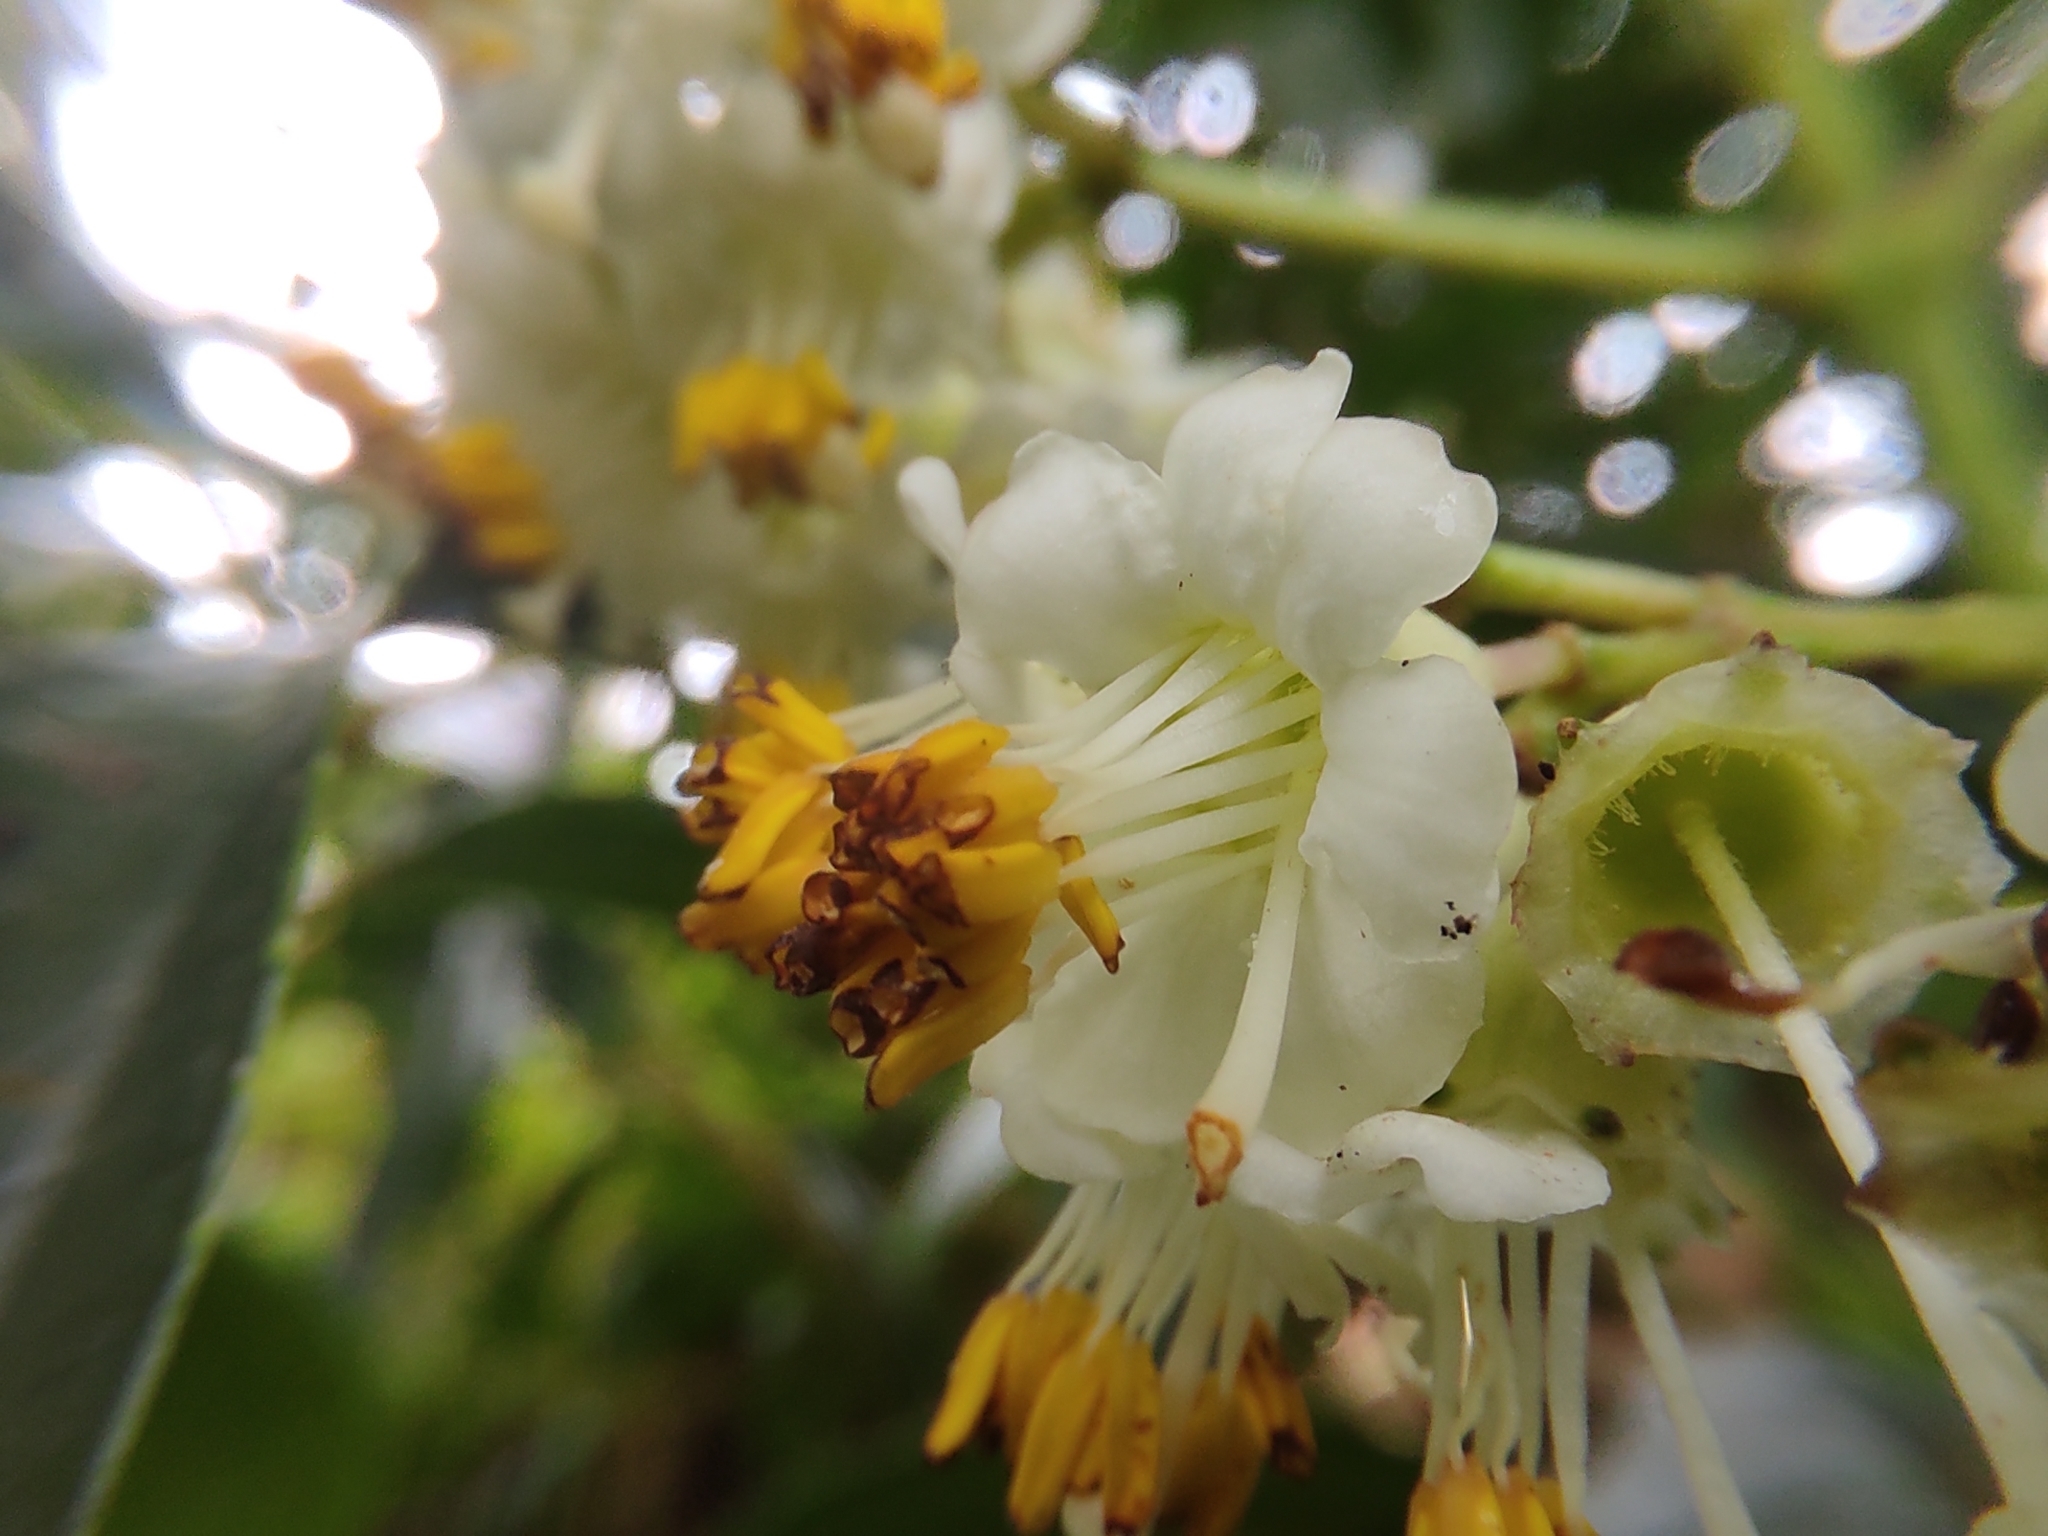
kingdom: Plantae
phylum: Tracheophyta
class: Magnoliopsida
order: Myrtales
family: Melastomataceae
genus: Miconia
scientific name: Miconia crocea
